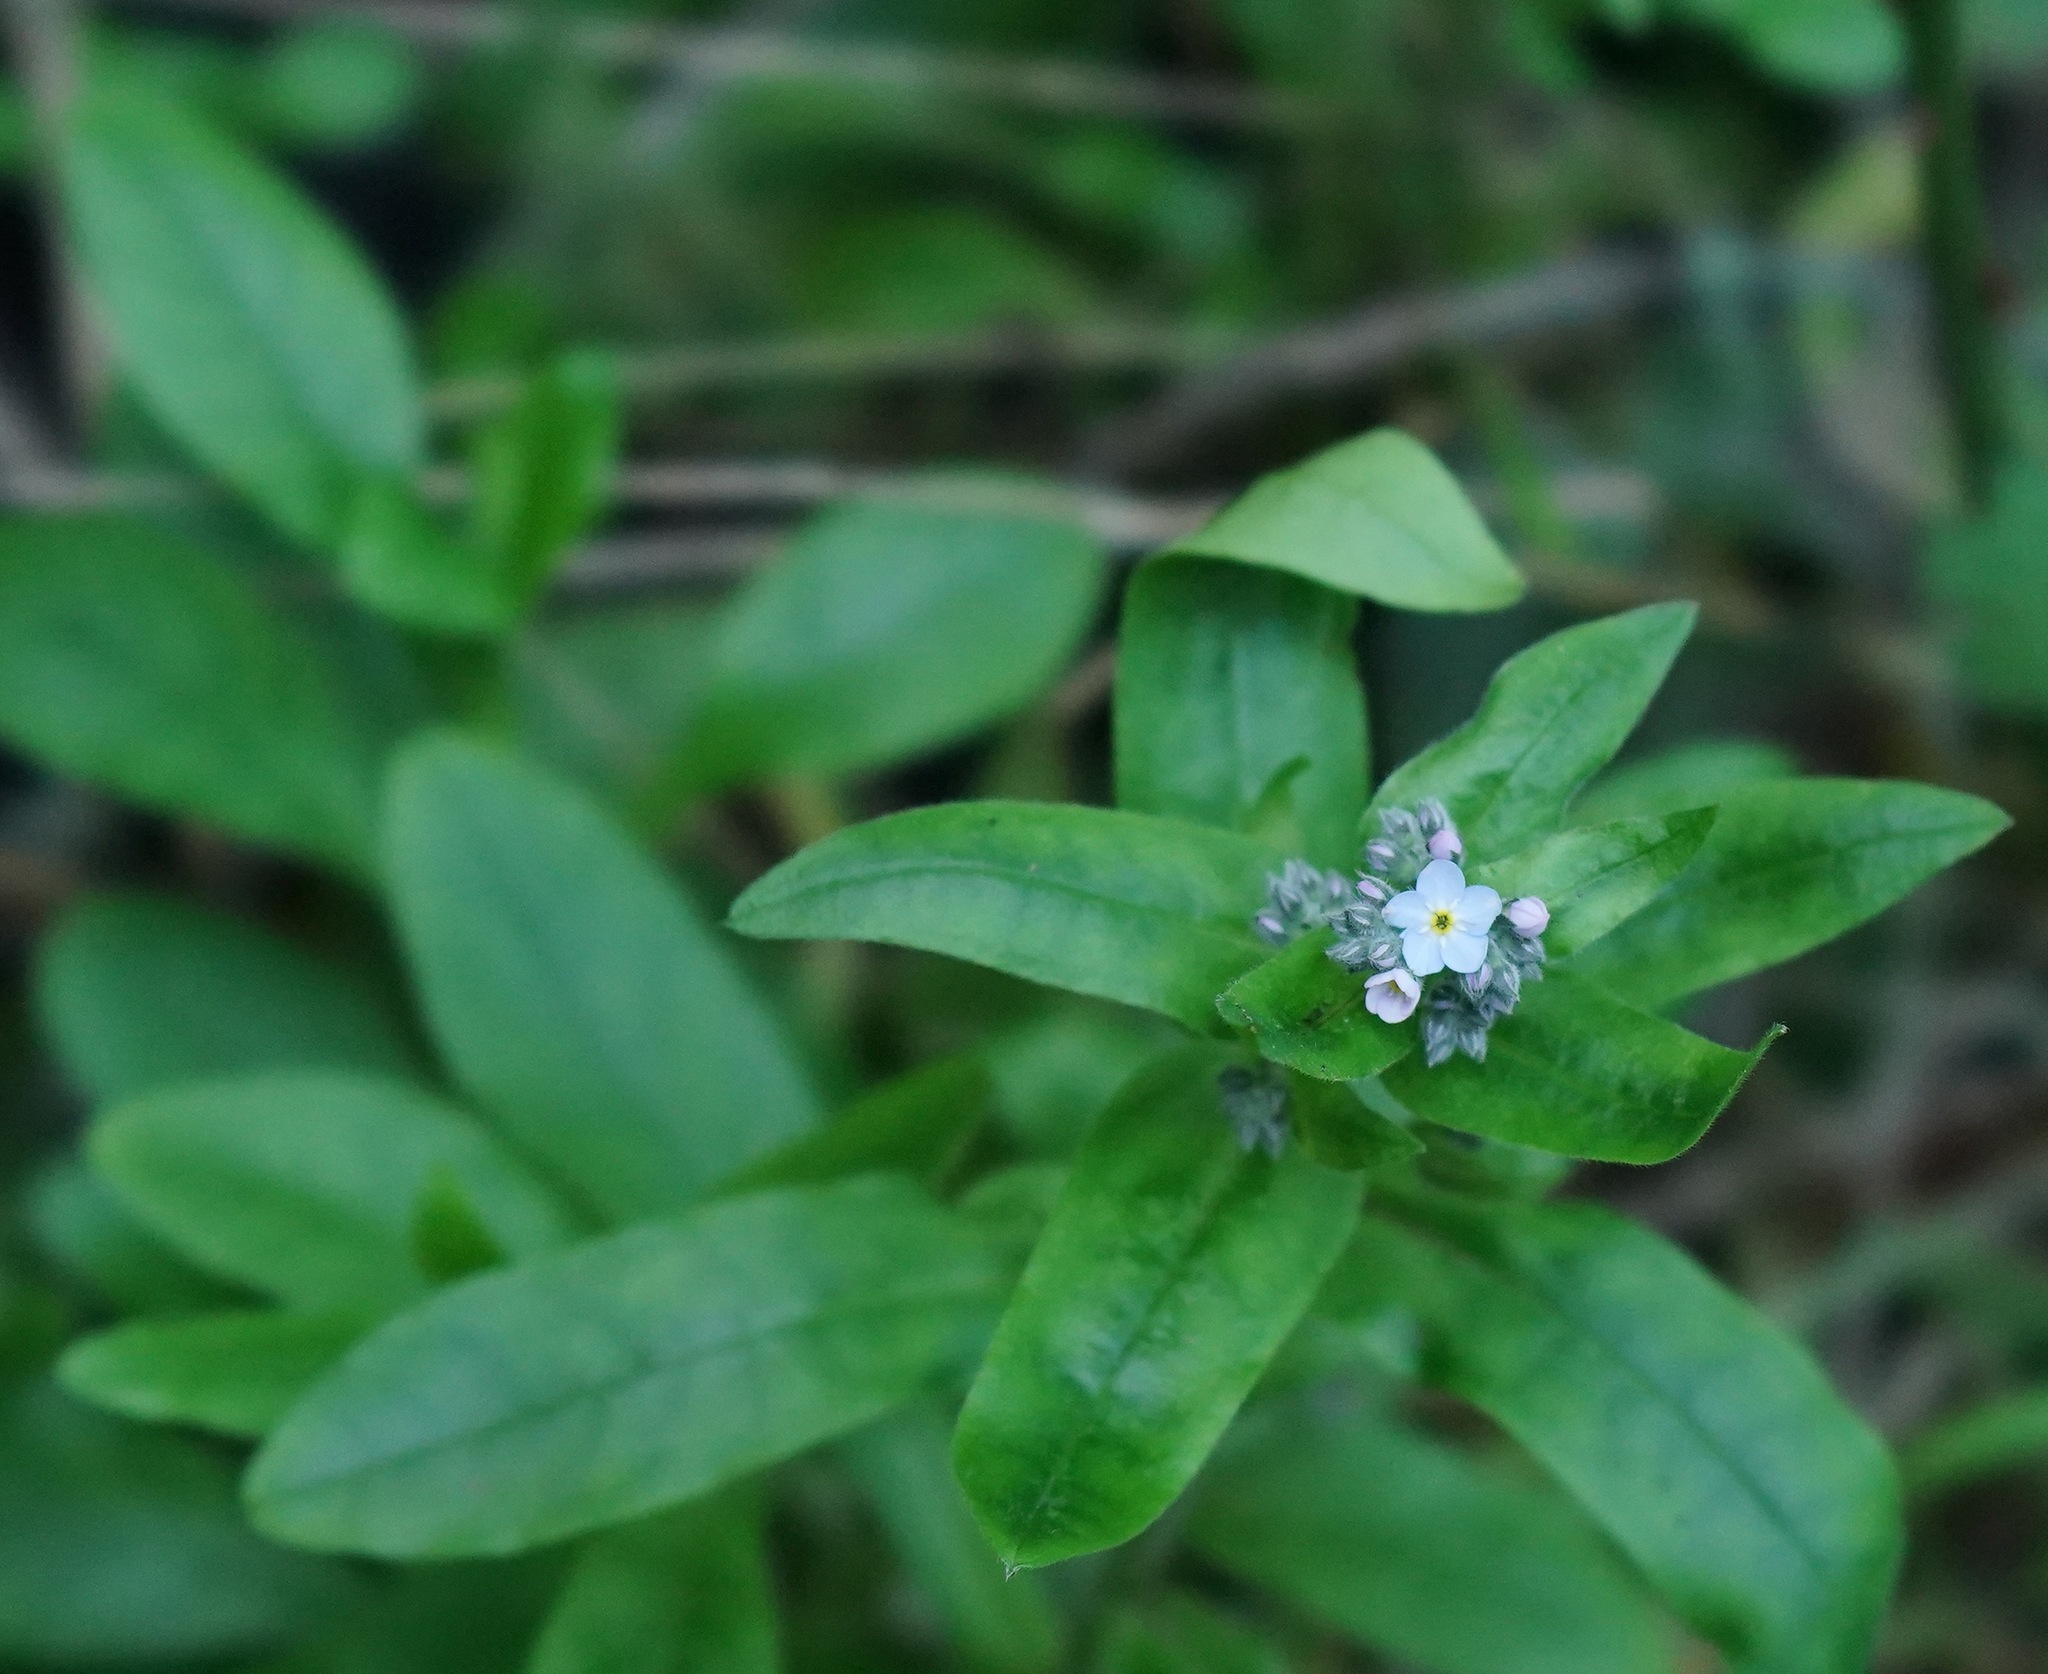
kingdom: Plantae
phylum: Tracheophyta
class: Magnoliopsida
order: Boraginales
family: Boraginaceae
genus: Myosotis
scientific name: Myosotis latifolia
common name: Broadleaf forget-me-not
